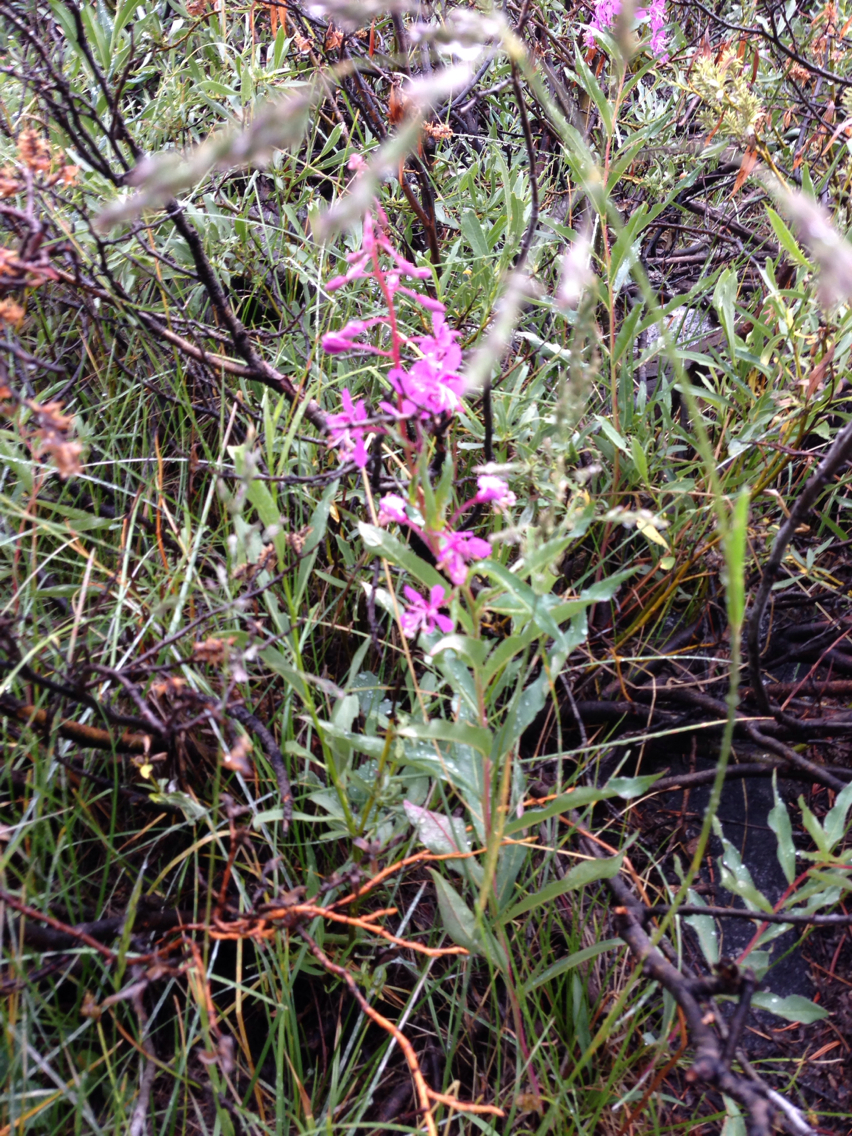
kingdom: Plantae
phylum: Tracheophyta
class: Magnoliopsida
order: Myrtales
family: Onagraceae
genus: Chamaenerion
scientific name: Chamaenerion angustifolium
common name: Fireweed
